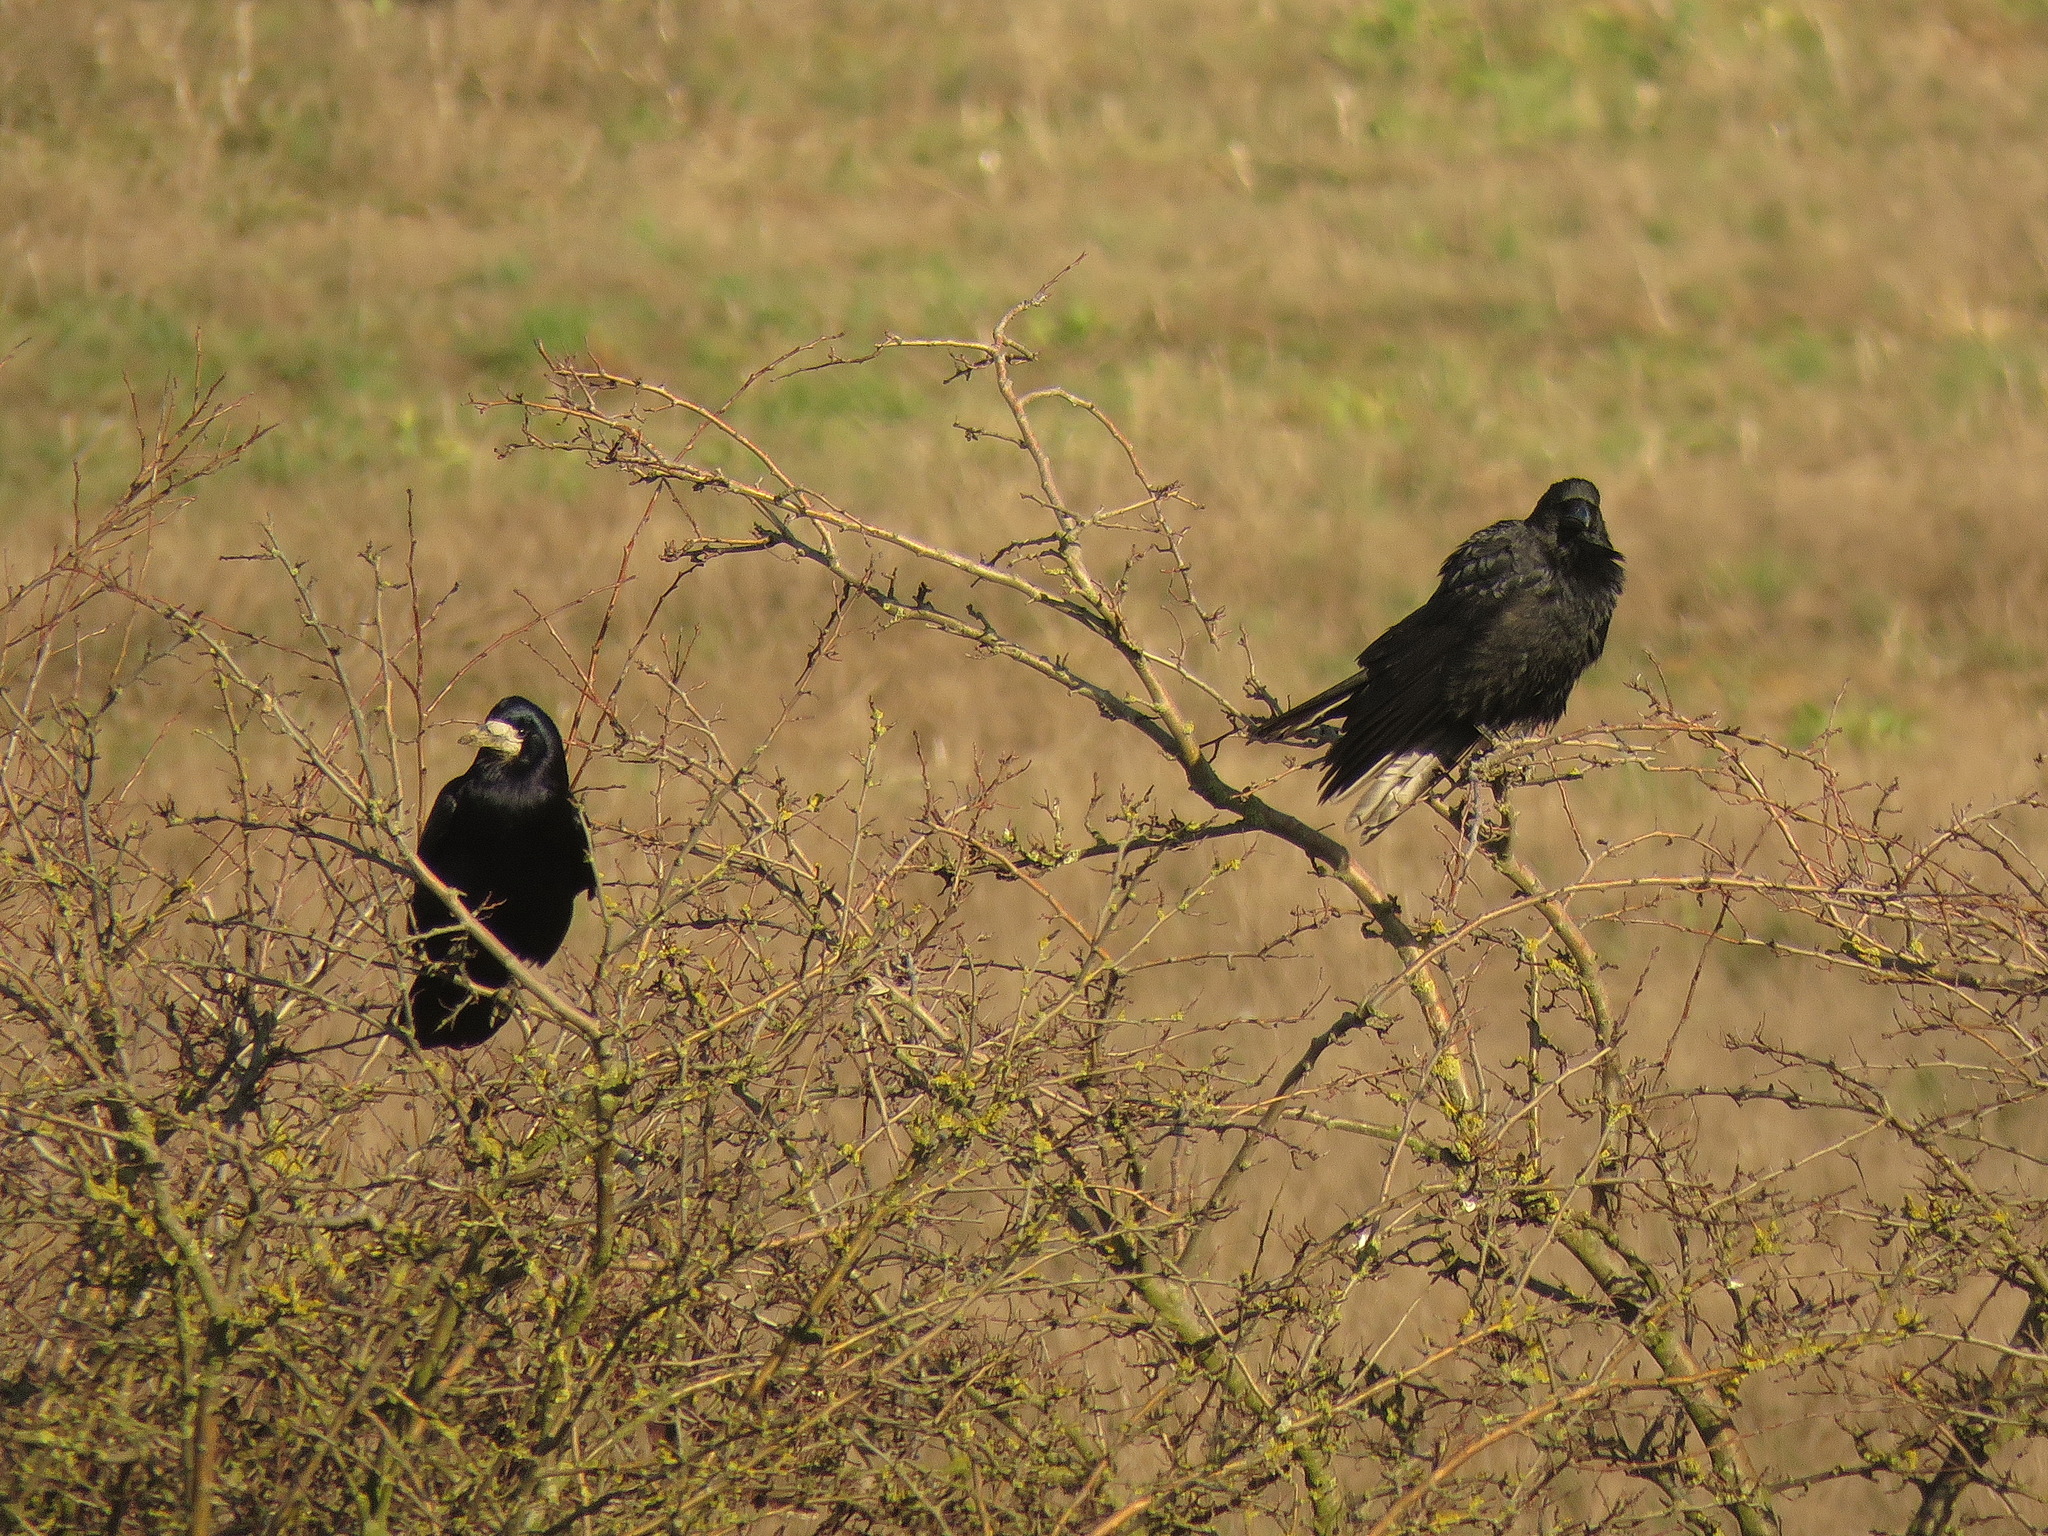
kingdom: Animalia
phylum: Chordata
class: Aves
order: Passeriformes
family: Corvidae
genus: Corvus
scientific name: Corvus frugilegus
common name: Rook
